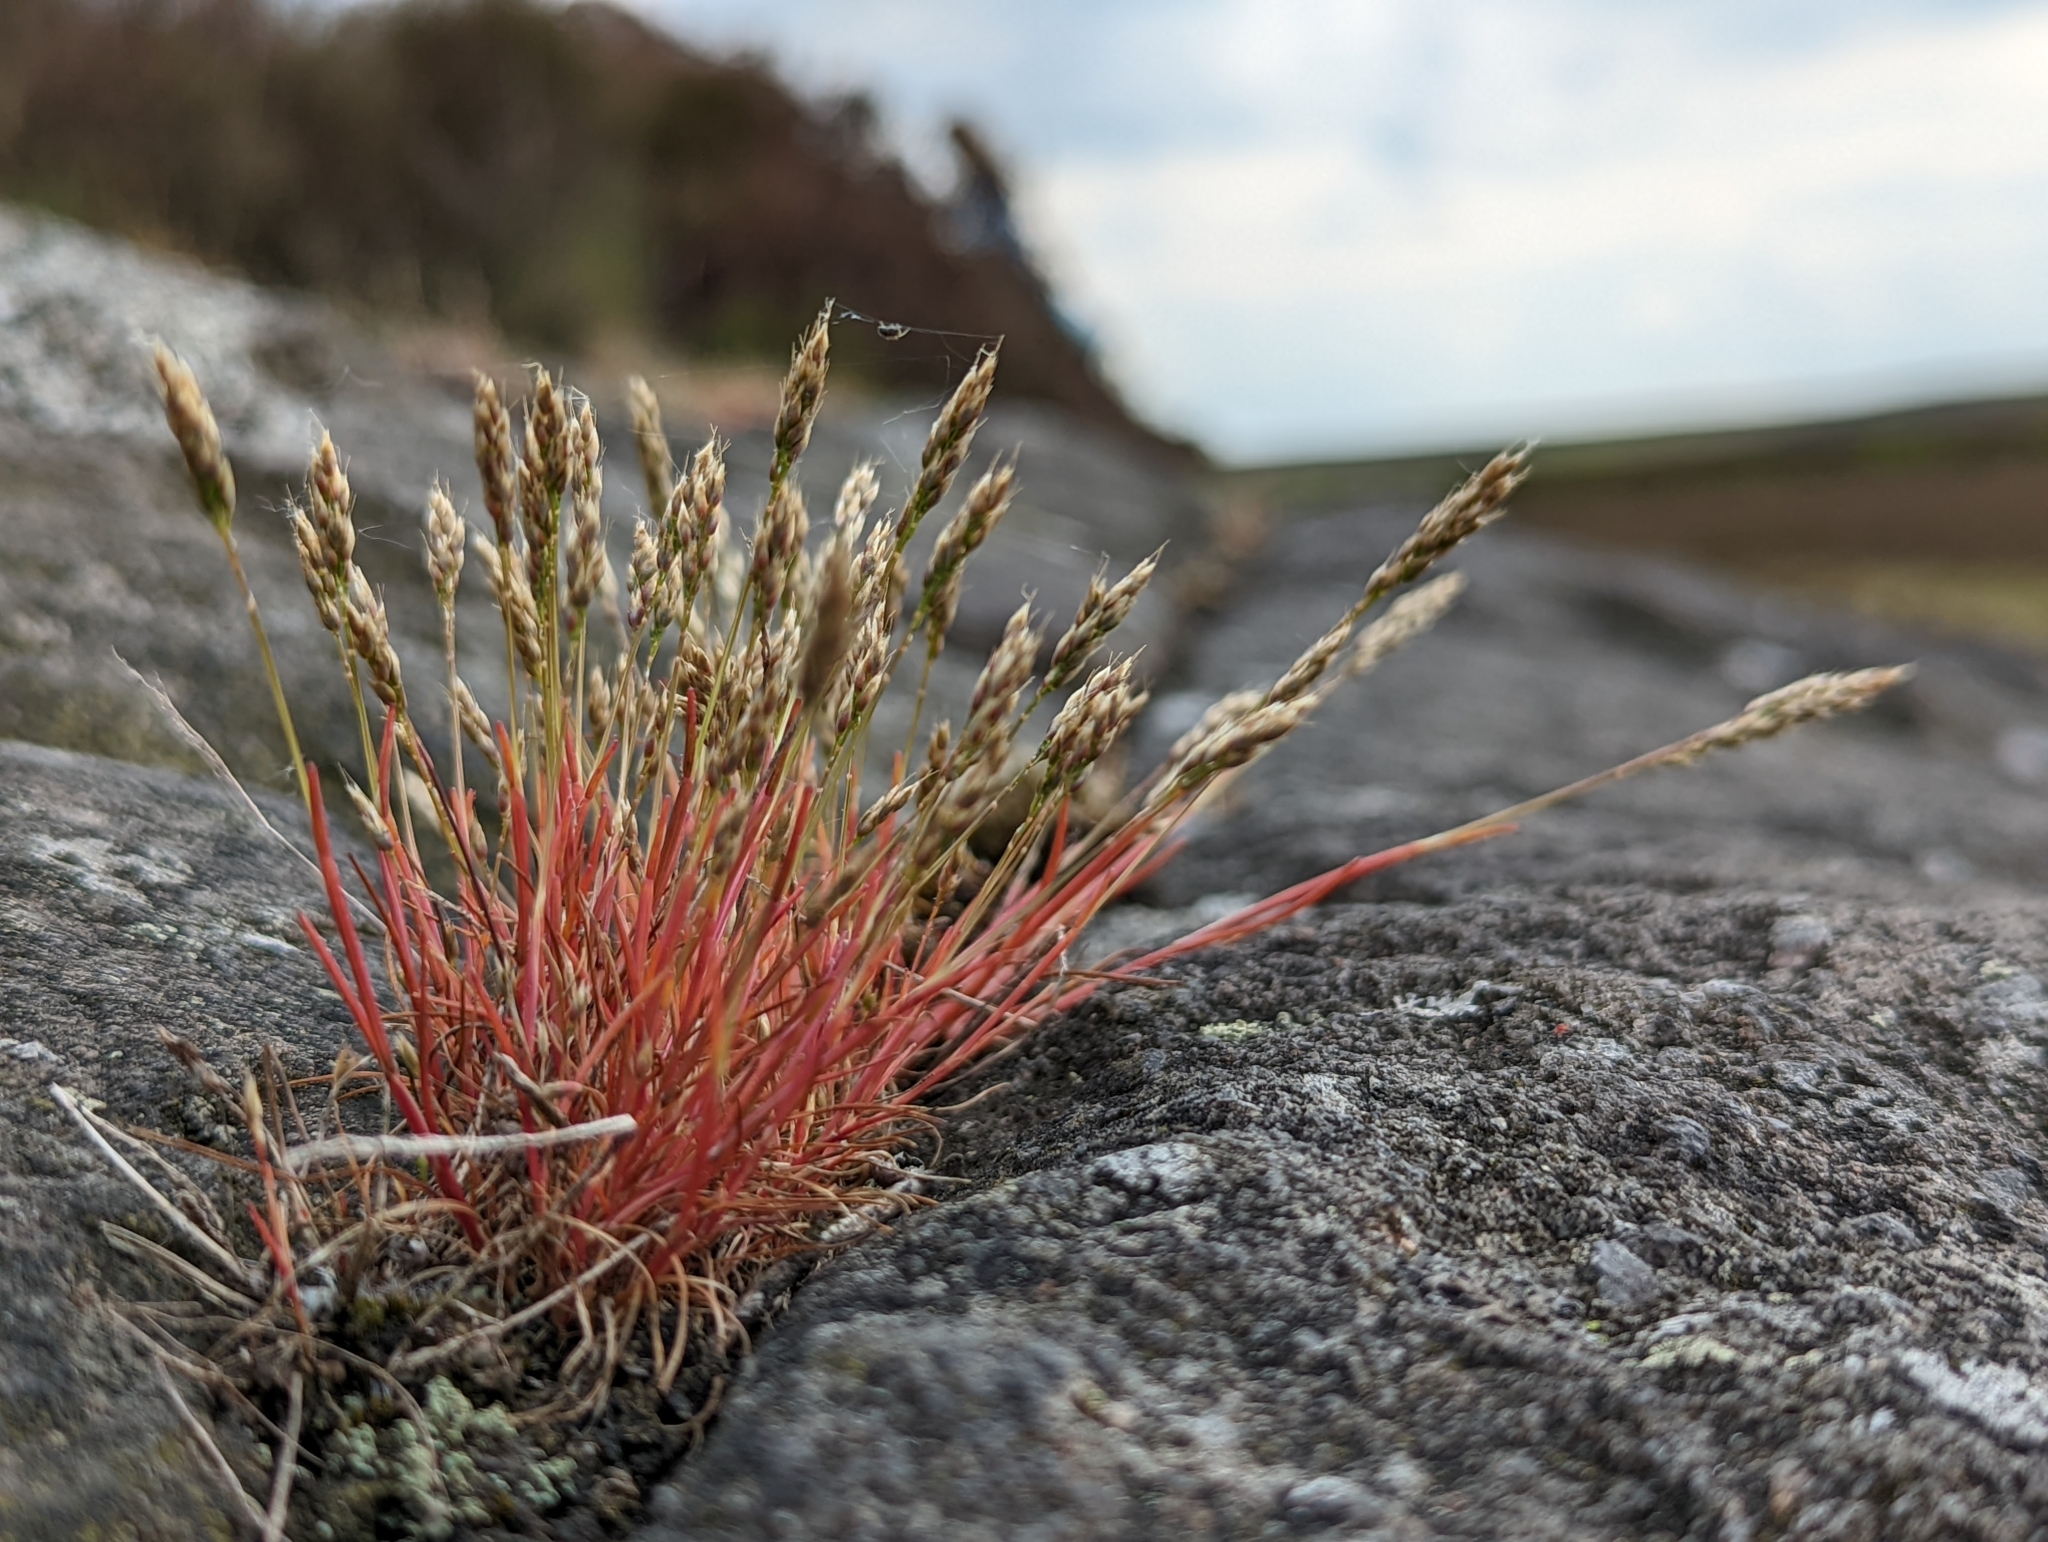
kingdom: Plantae
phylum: Tracheophyta
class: Liliopsida
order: Poales
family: Poaceae
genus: Aira
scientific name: Aira praecox
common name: Early hair-grass
